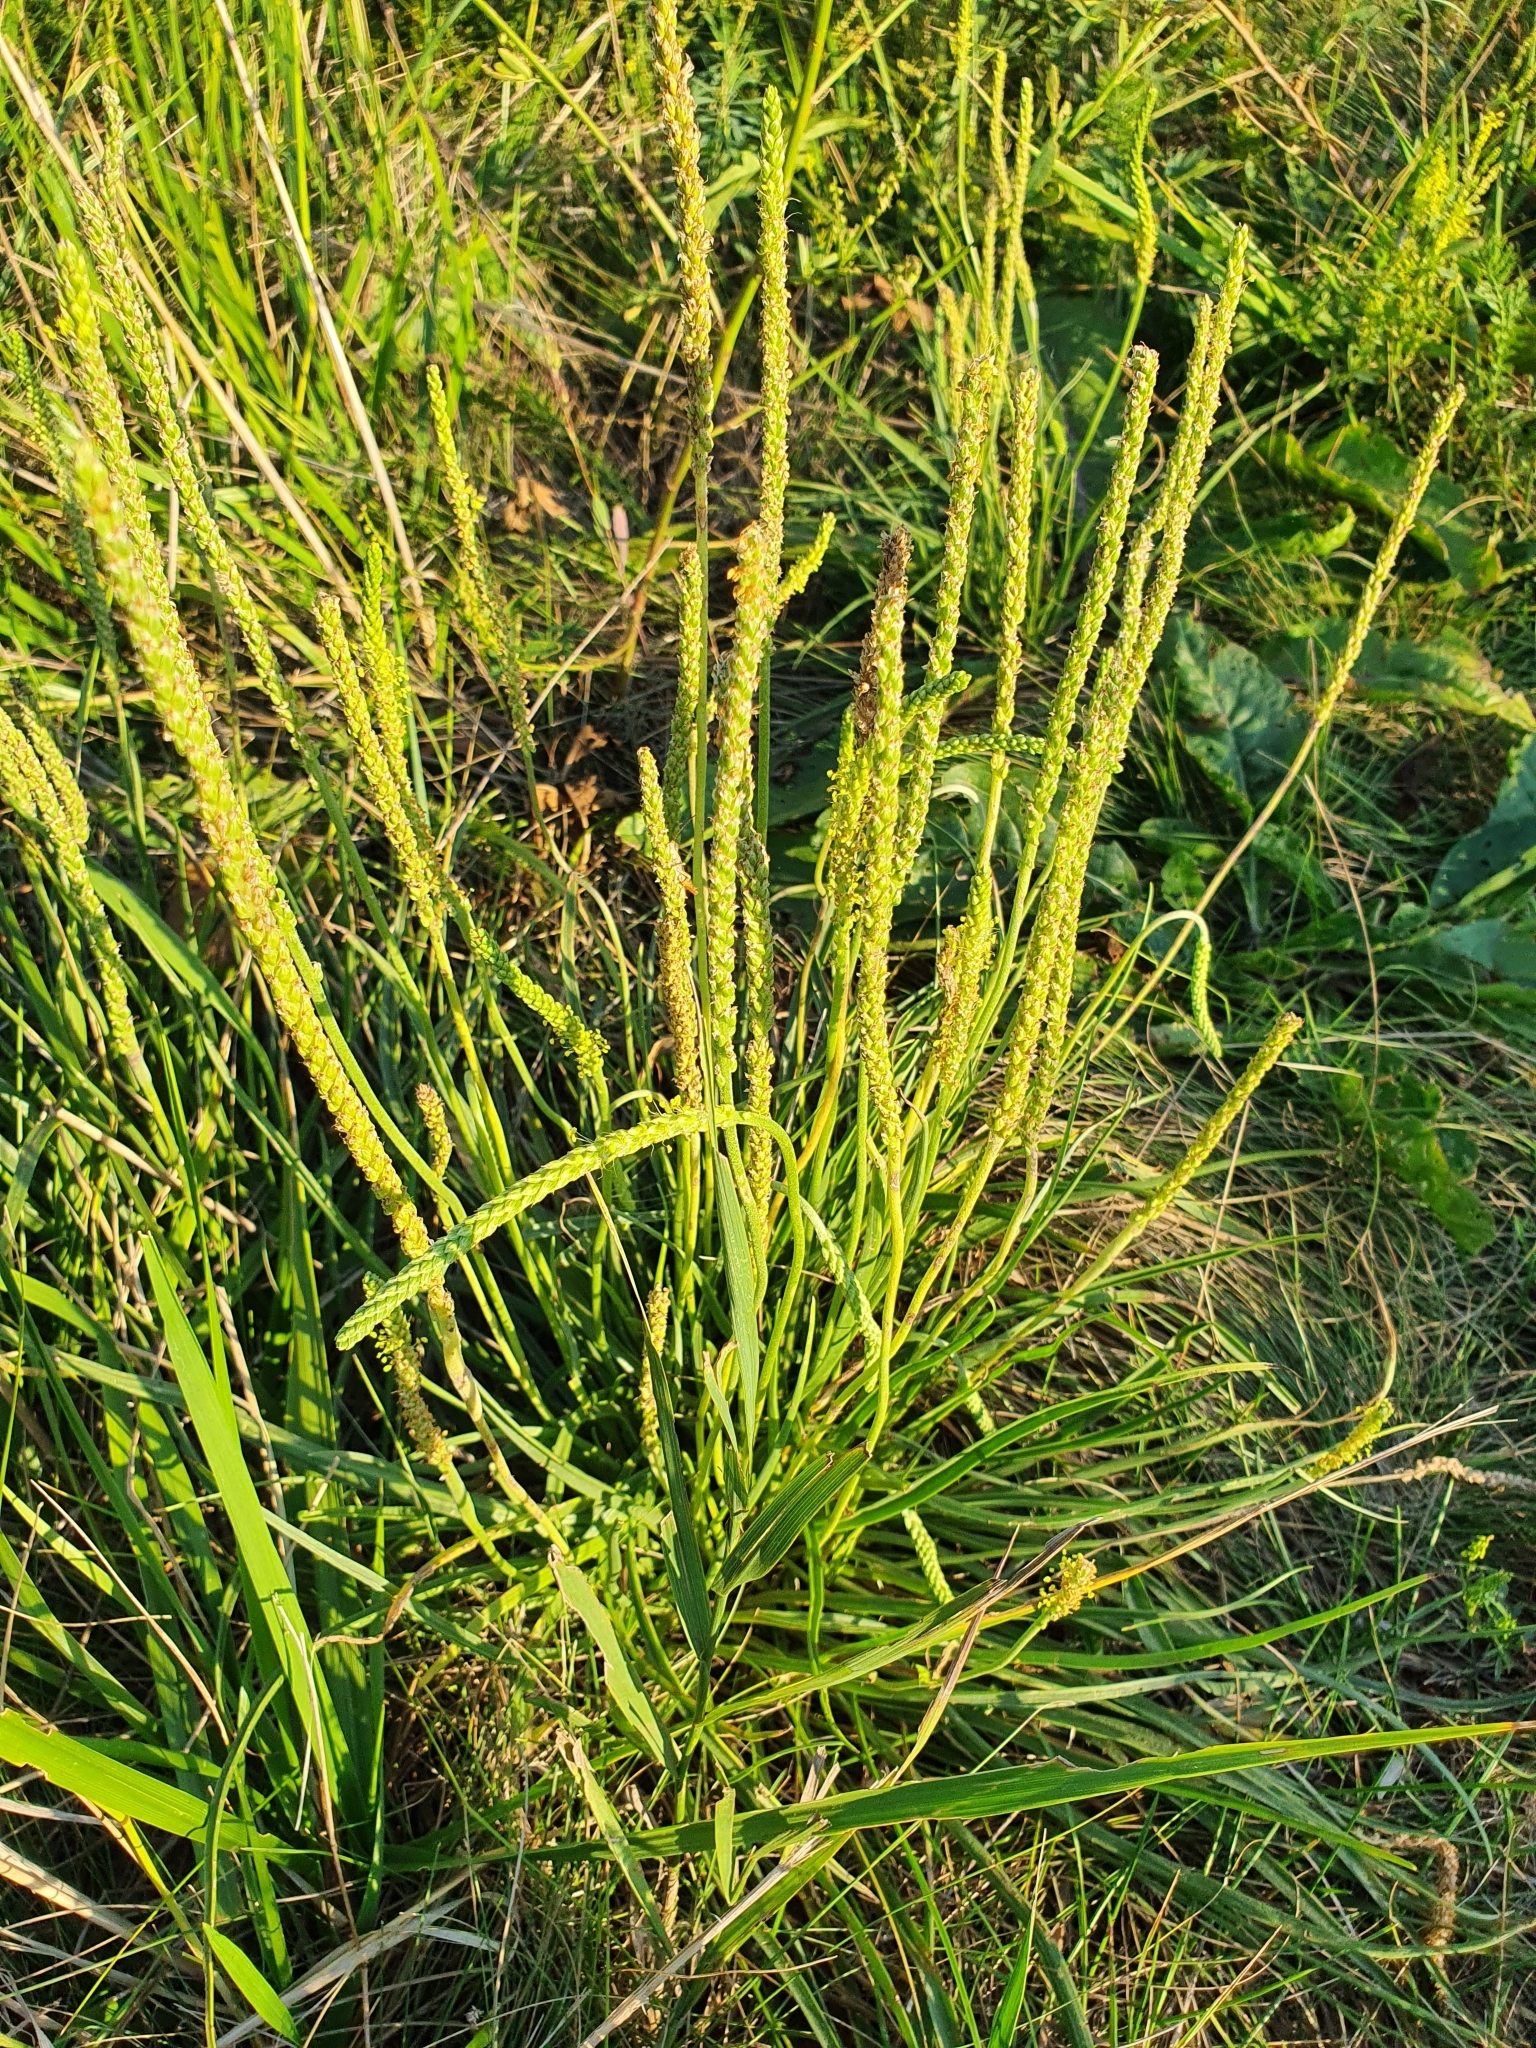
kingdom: Plantae
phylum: Tracheophyta
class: Magnoliopsida
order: Lamiales
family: Plantaginaceae
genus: Plantago
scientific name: Plantago salsa
